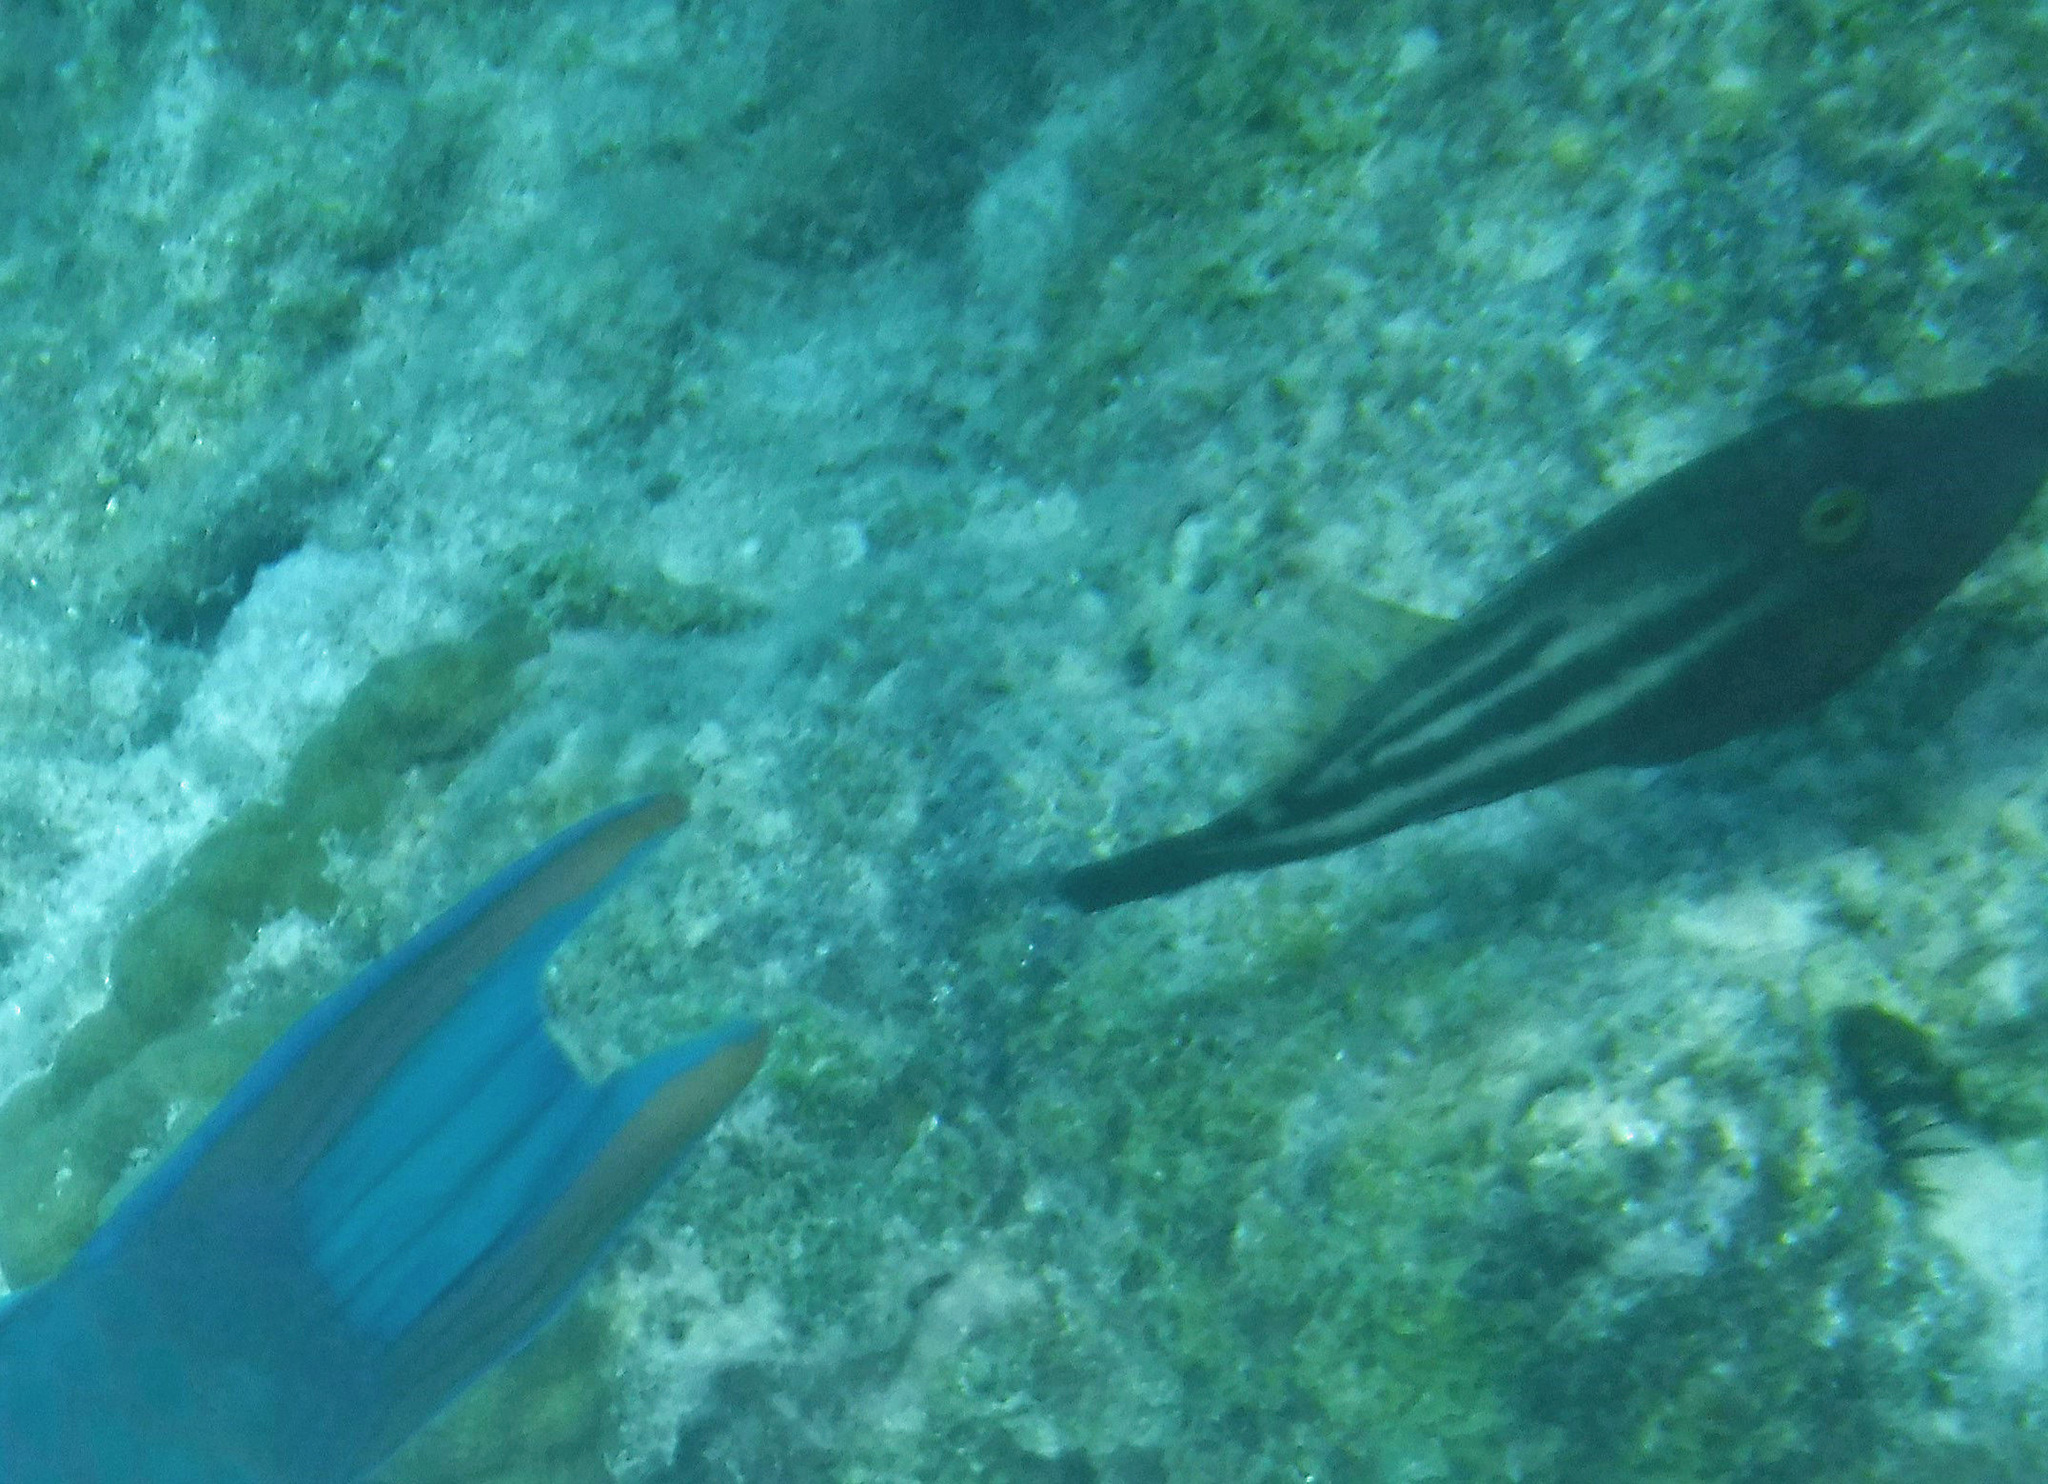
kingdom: Animalia
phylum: Chordata
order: Tetraodontiformes
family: Monacanthidae
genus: Cantherhines
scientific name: Cantherhines pullus
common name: Orangespotted filefish
